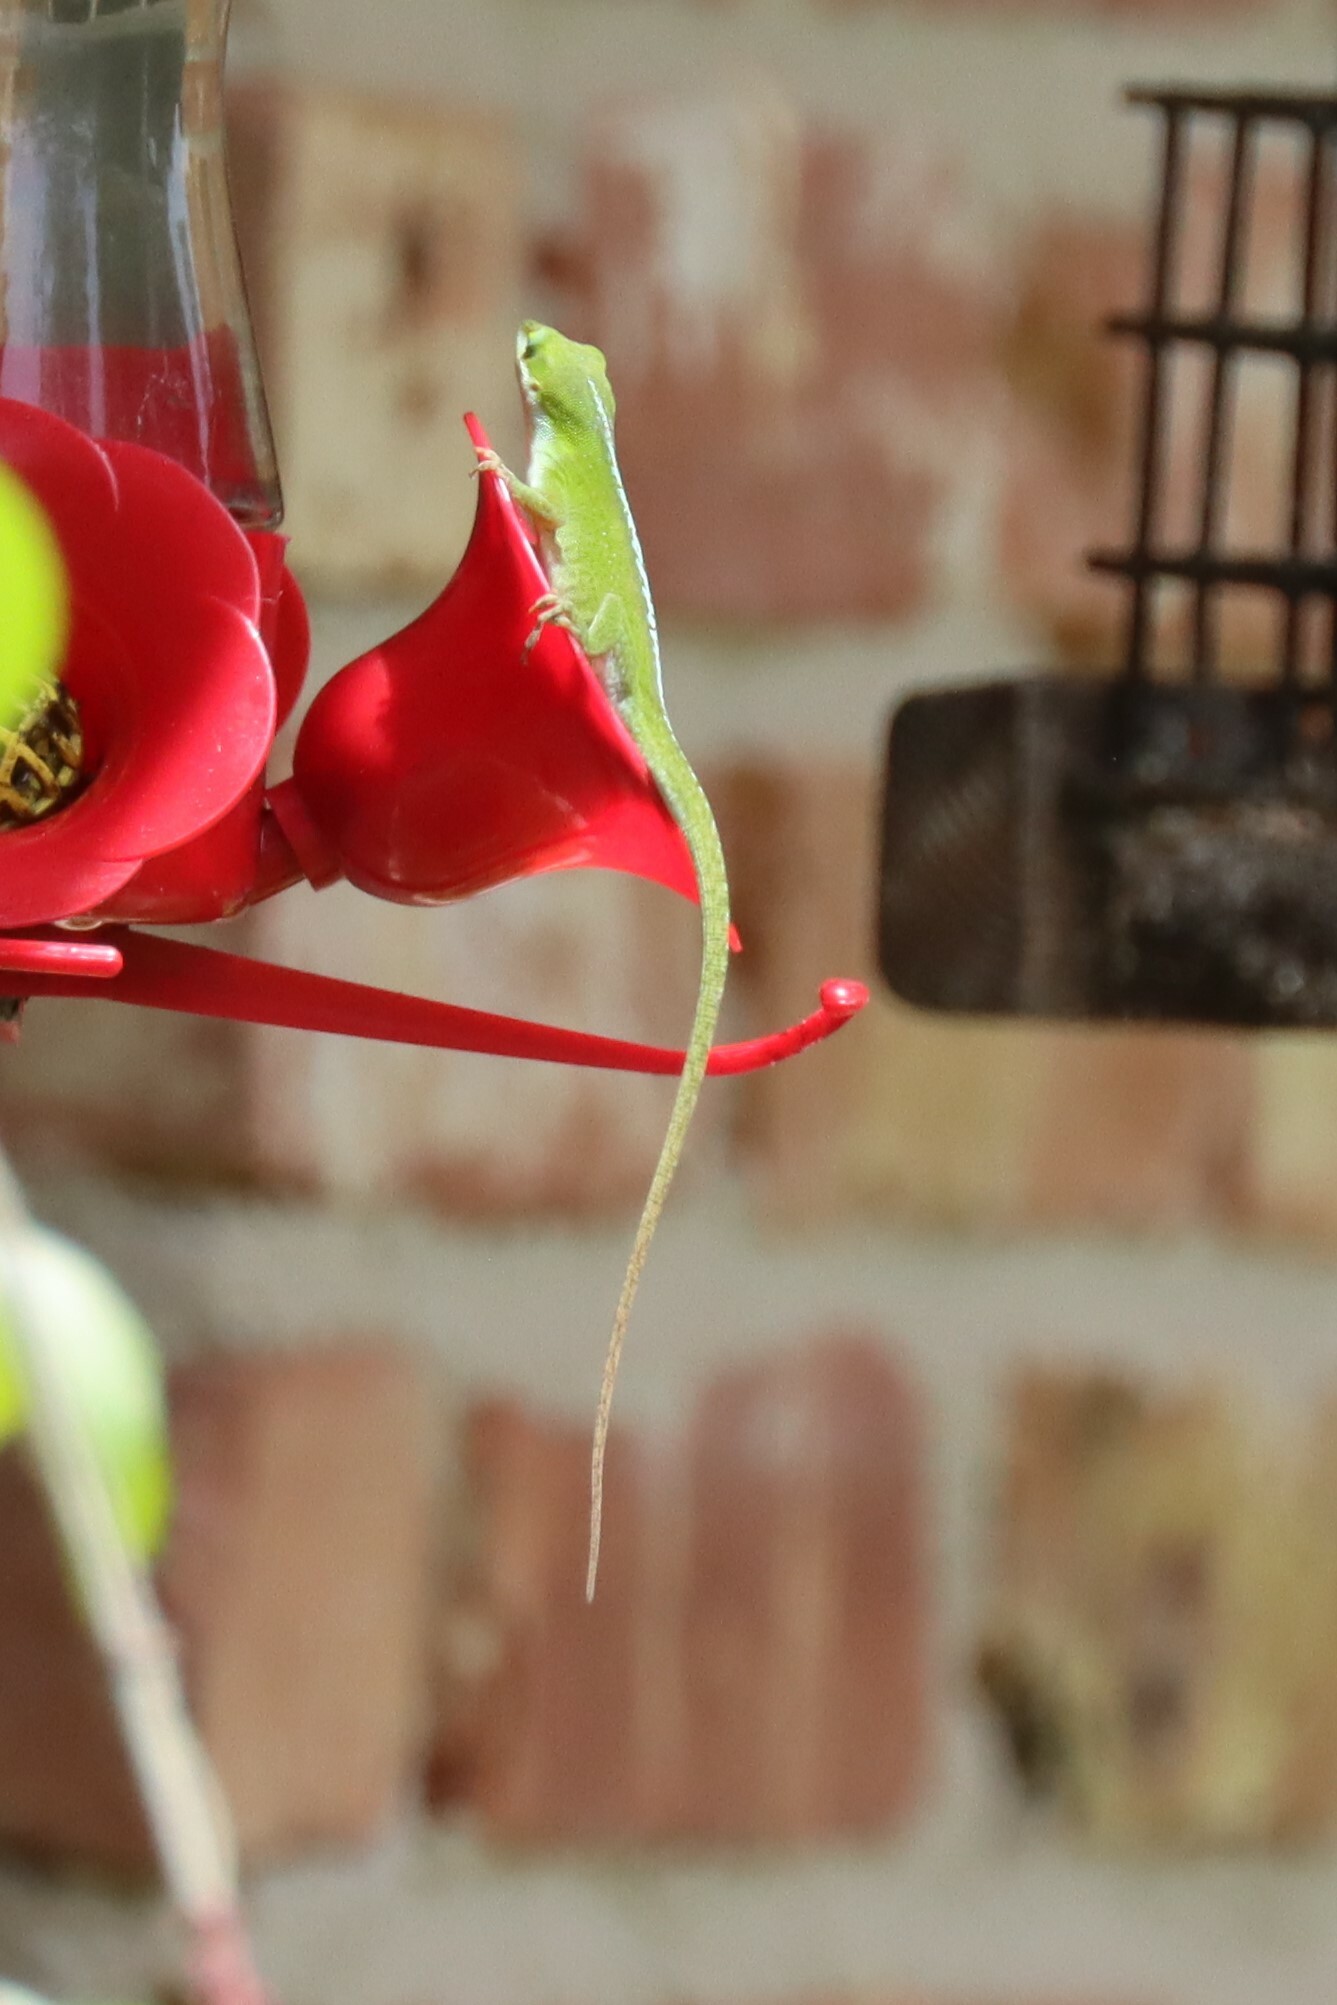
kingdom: Animalia
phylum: Chordata
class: Squamata
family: Dactyloidae
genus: Anolis
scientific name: Anolis carolinensis
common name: Green anole
